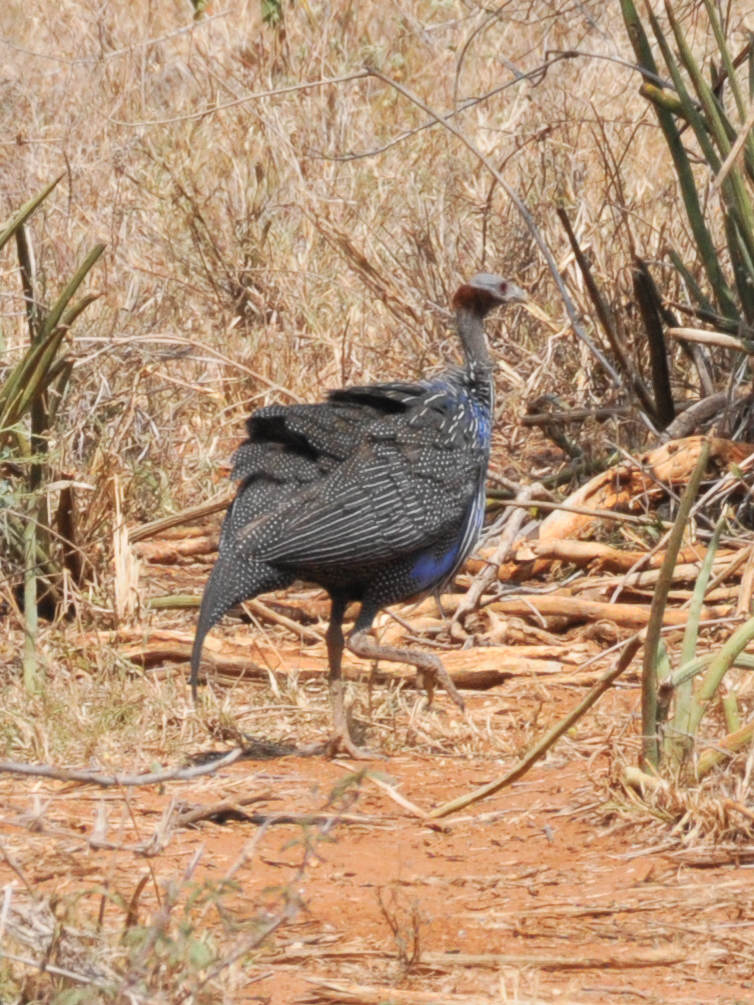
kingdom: Animalia
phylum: Chordata
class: Aves
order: Galliformes
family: Numididae
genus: Acryllium
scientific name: Acryllium vulturinum
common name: Vulturine guineafowl
